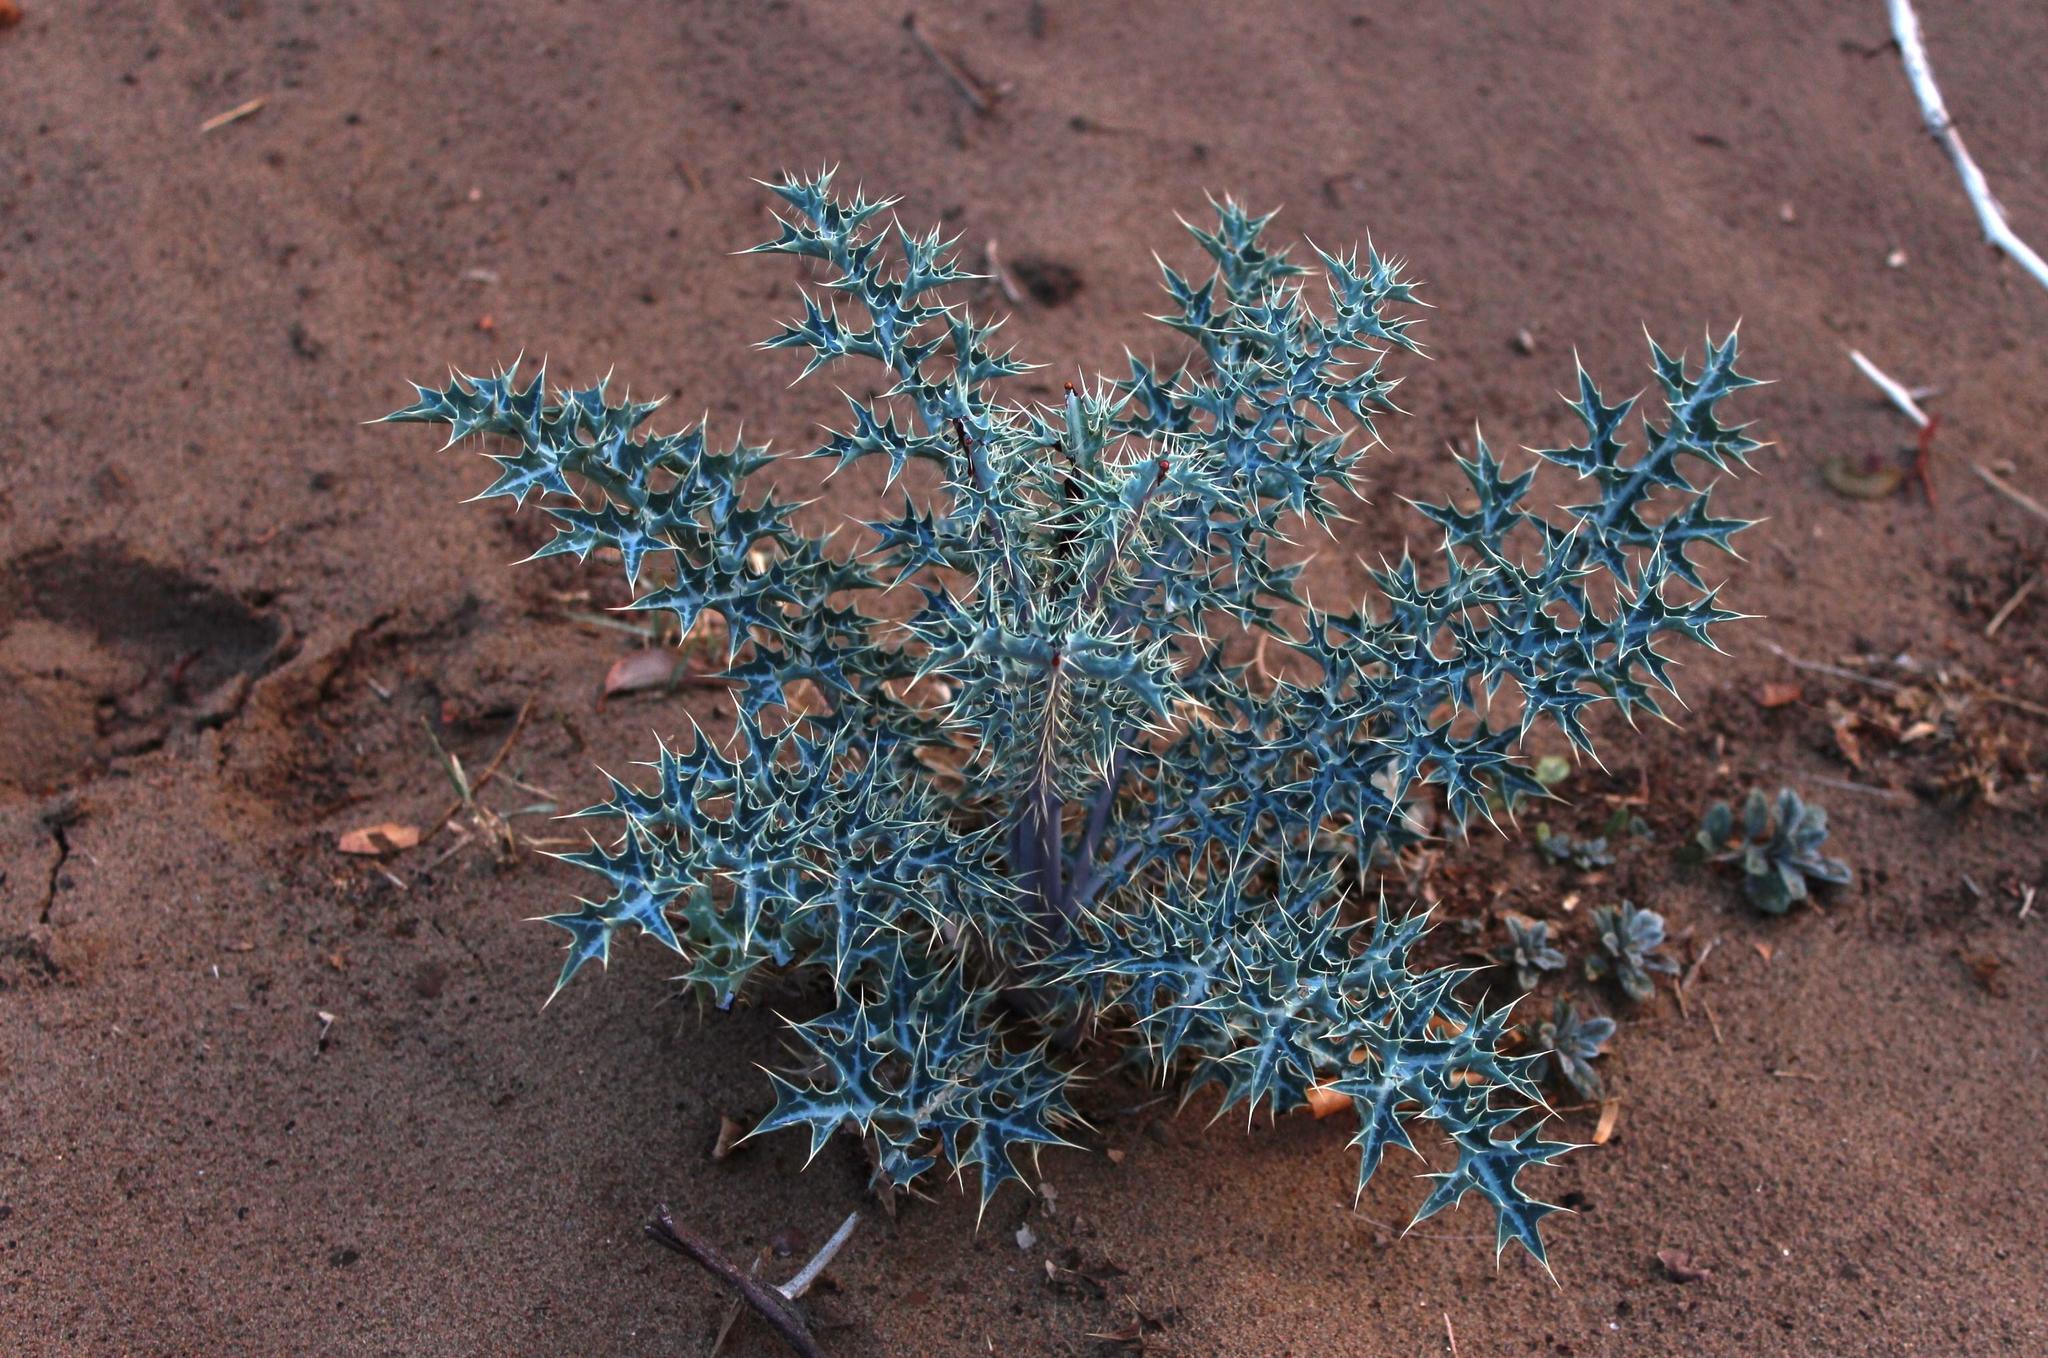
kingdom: Plantae
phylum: Tracheophyta
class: Magnoliopsida
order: Ranunculales
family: Papaveraceae
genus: Argemone
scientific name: Argemone ochroleuca
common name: White-flower mexican-poppy
